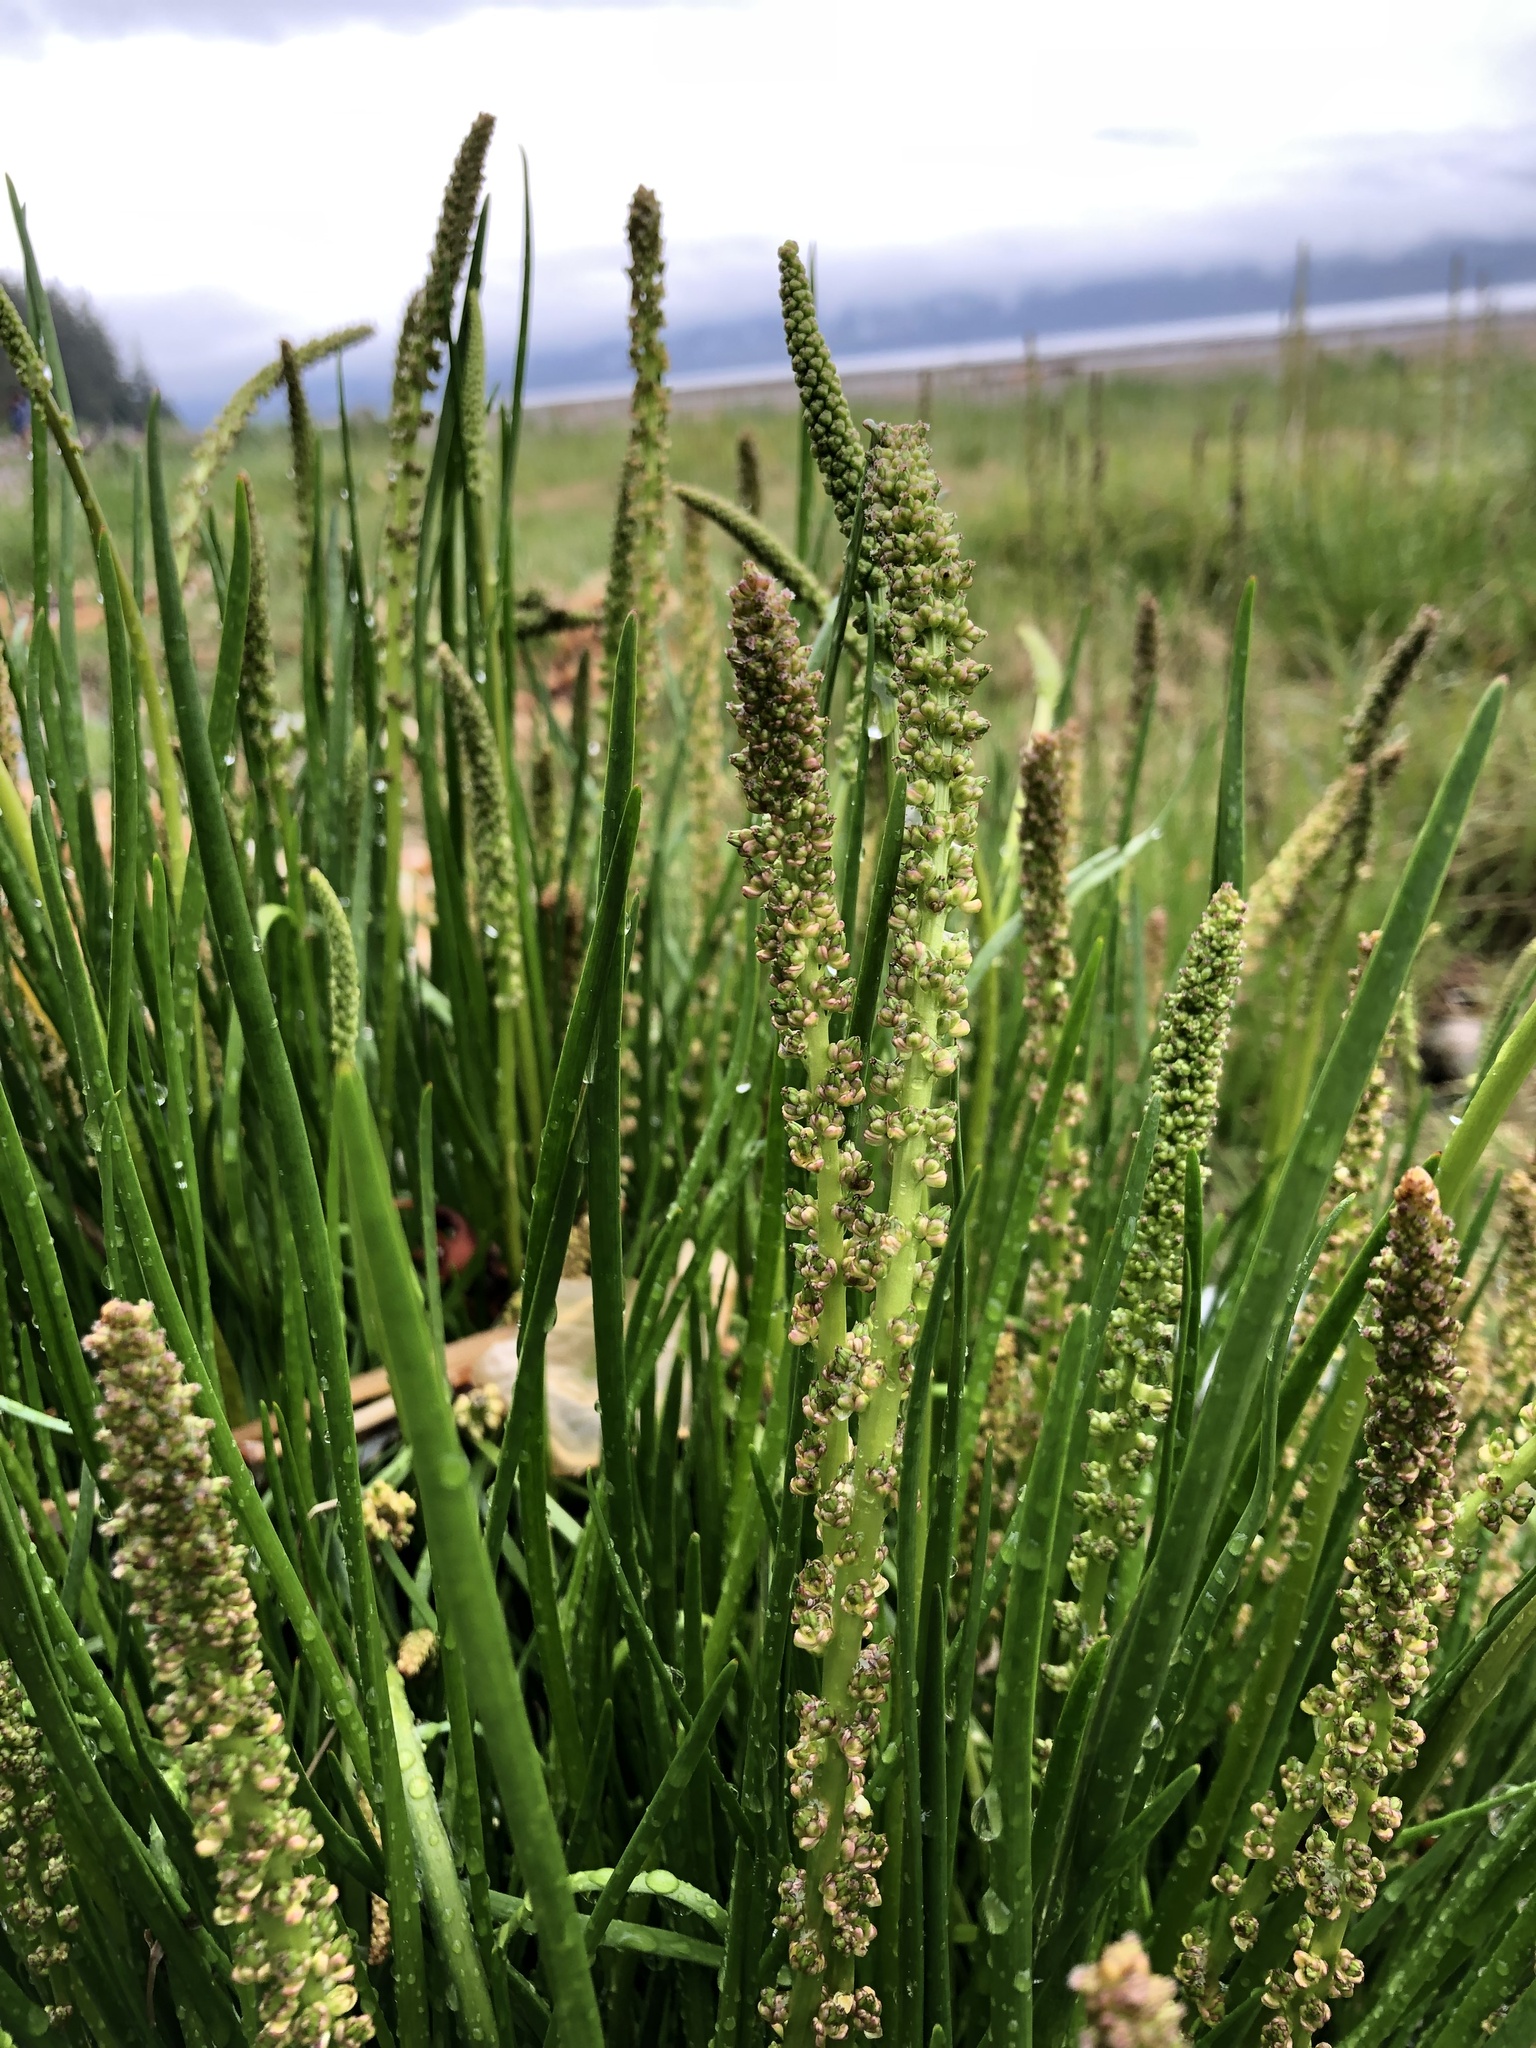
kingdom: Plantae
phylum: Tracheophyta
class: Liliopsida
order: Alismatales
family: Juncaginaceae
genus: Triglochin
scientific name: Triglochin maritima
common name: Sea arrowgrass
